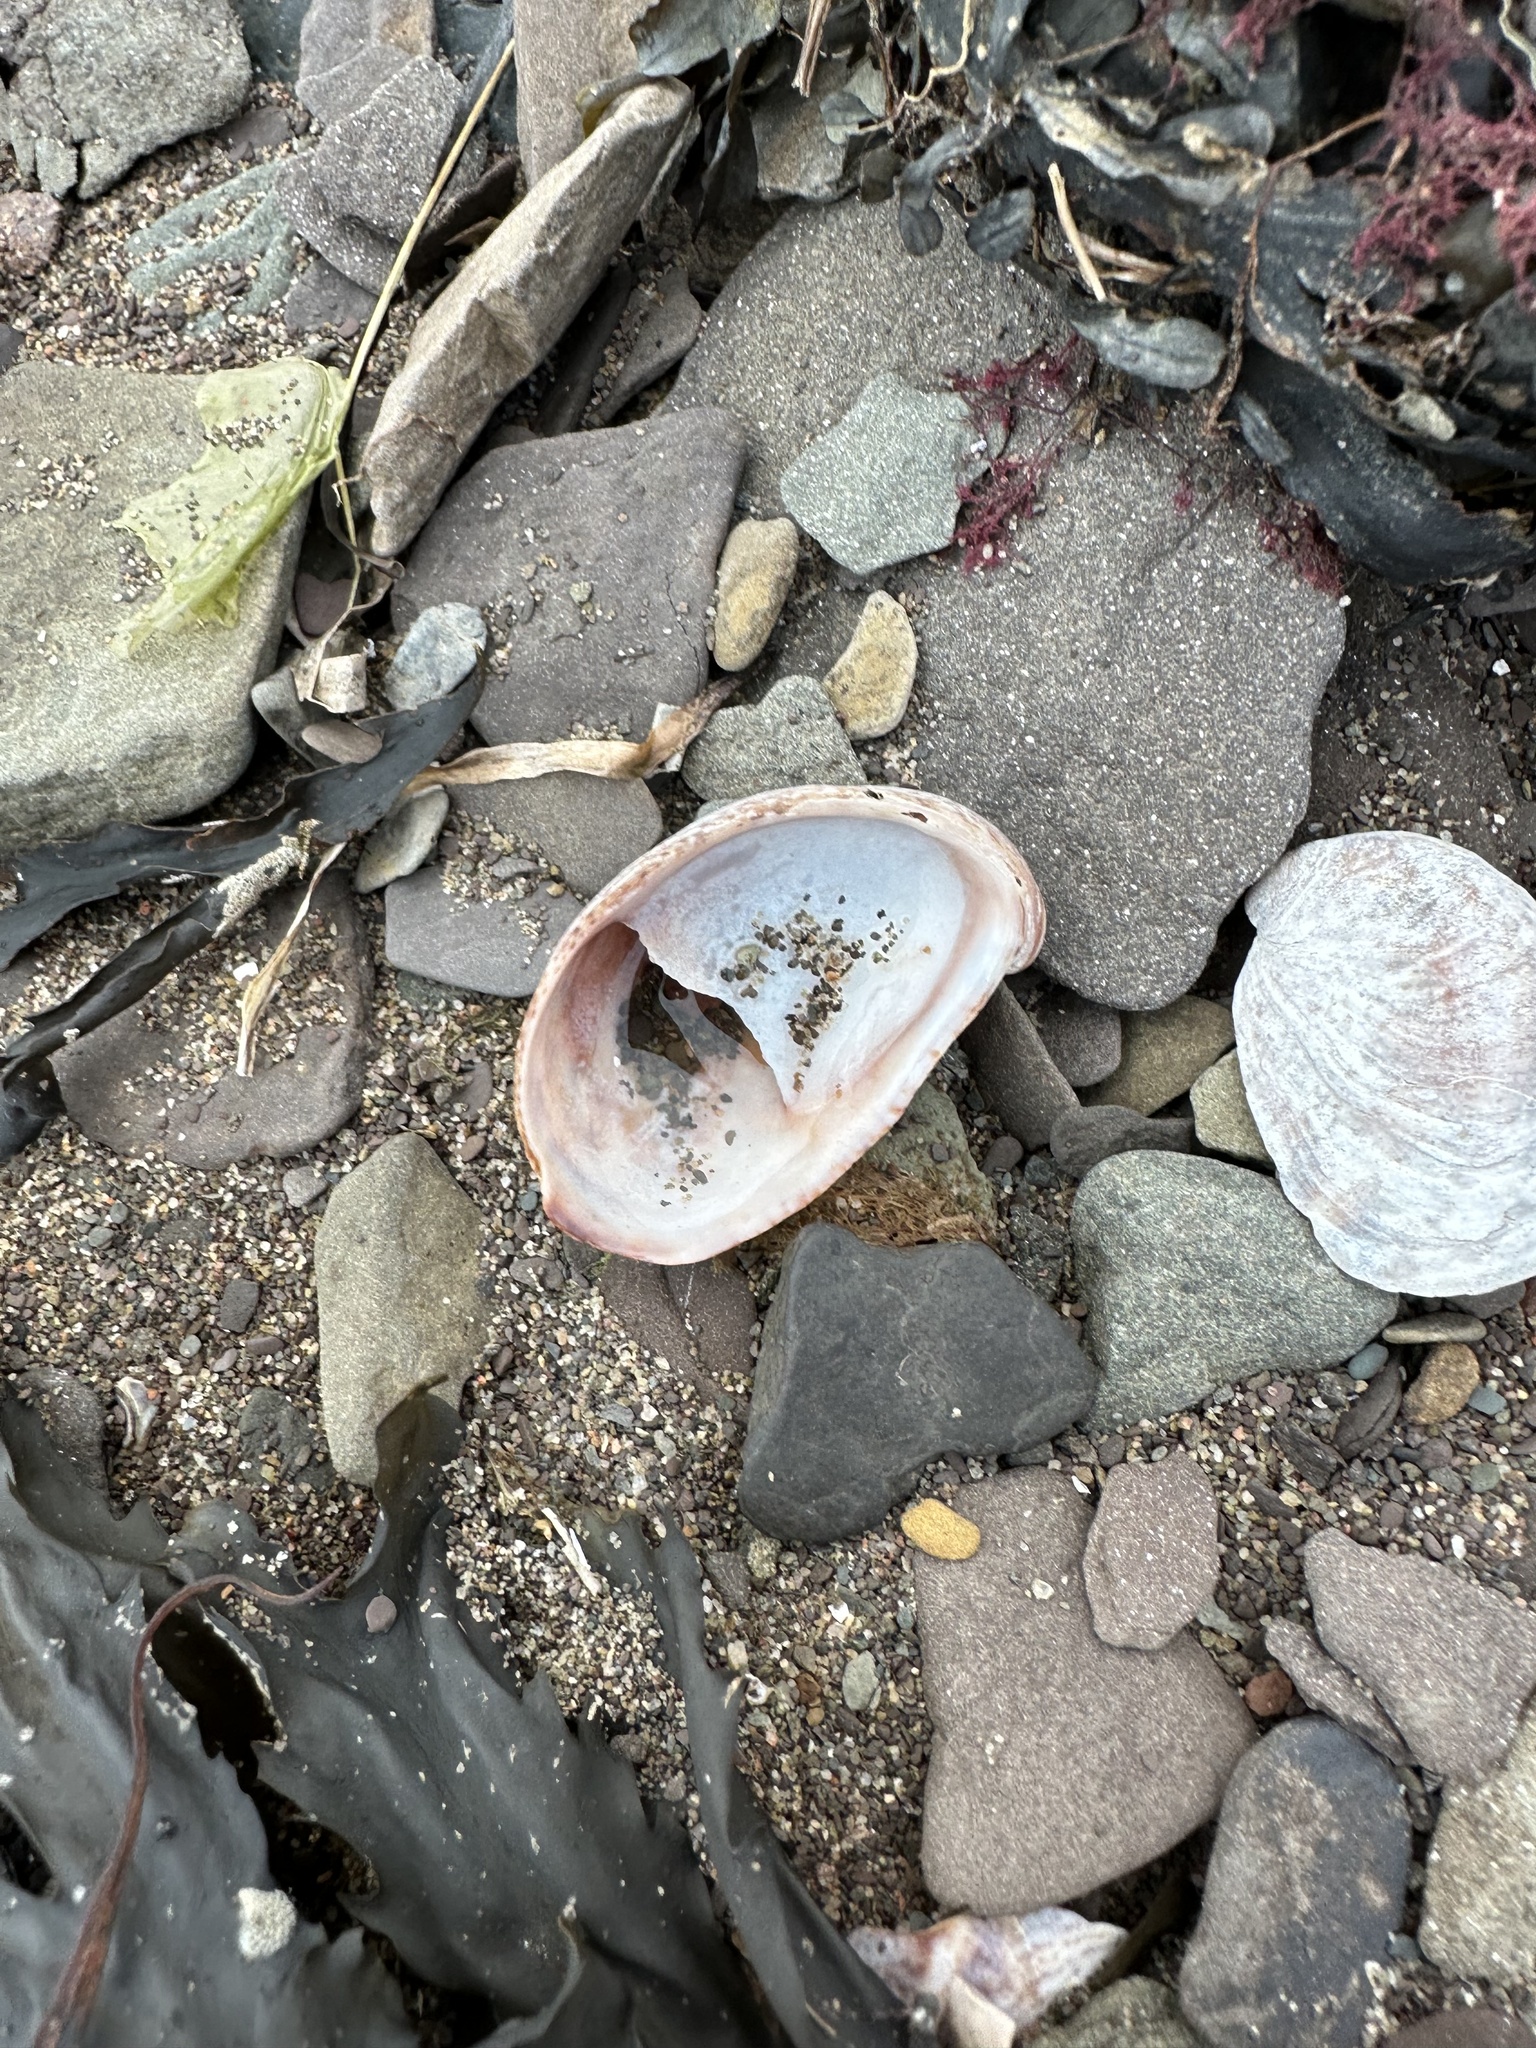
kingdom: Animalia
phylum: Mollusca
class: Gastropoda
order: Littorinimorpha
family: Calyptraeidae
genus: Crepidula
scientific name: Crepidula fornicata
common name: Slipper limpet
